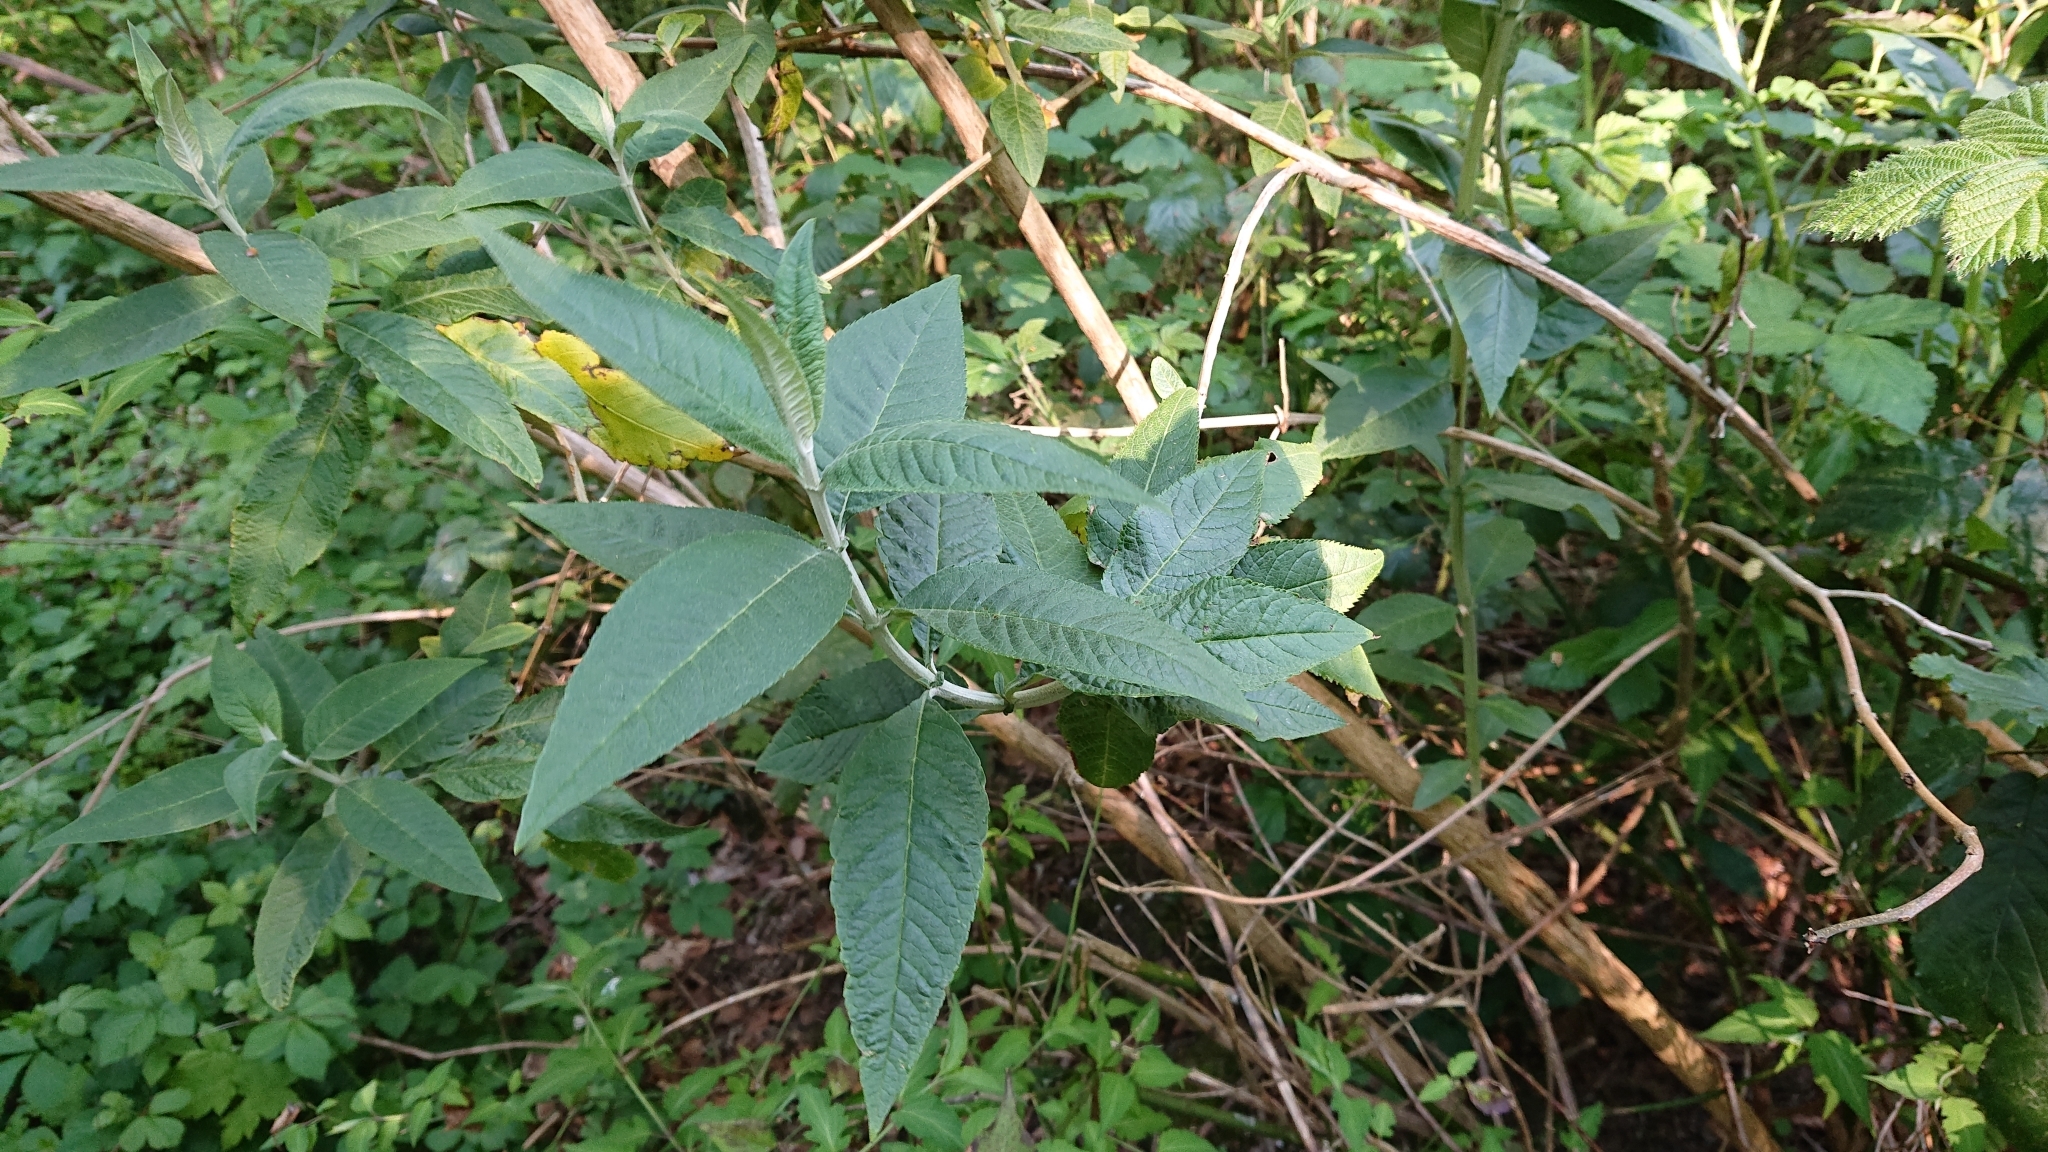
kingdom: Plantae
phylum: Tracheophyta
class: Magnoliopsida
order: Lamiales
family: Scrophulariaceae
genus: Buddleja
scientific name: Buddleja davidii
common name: Butterfly-bush
